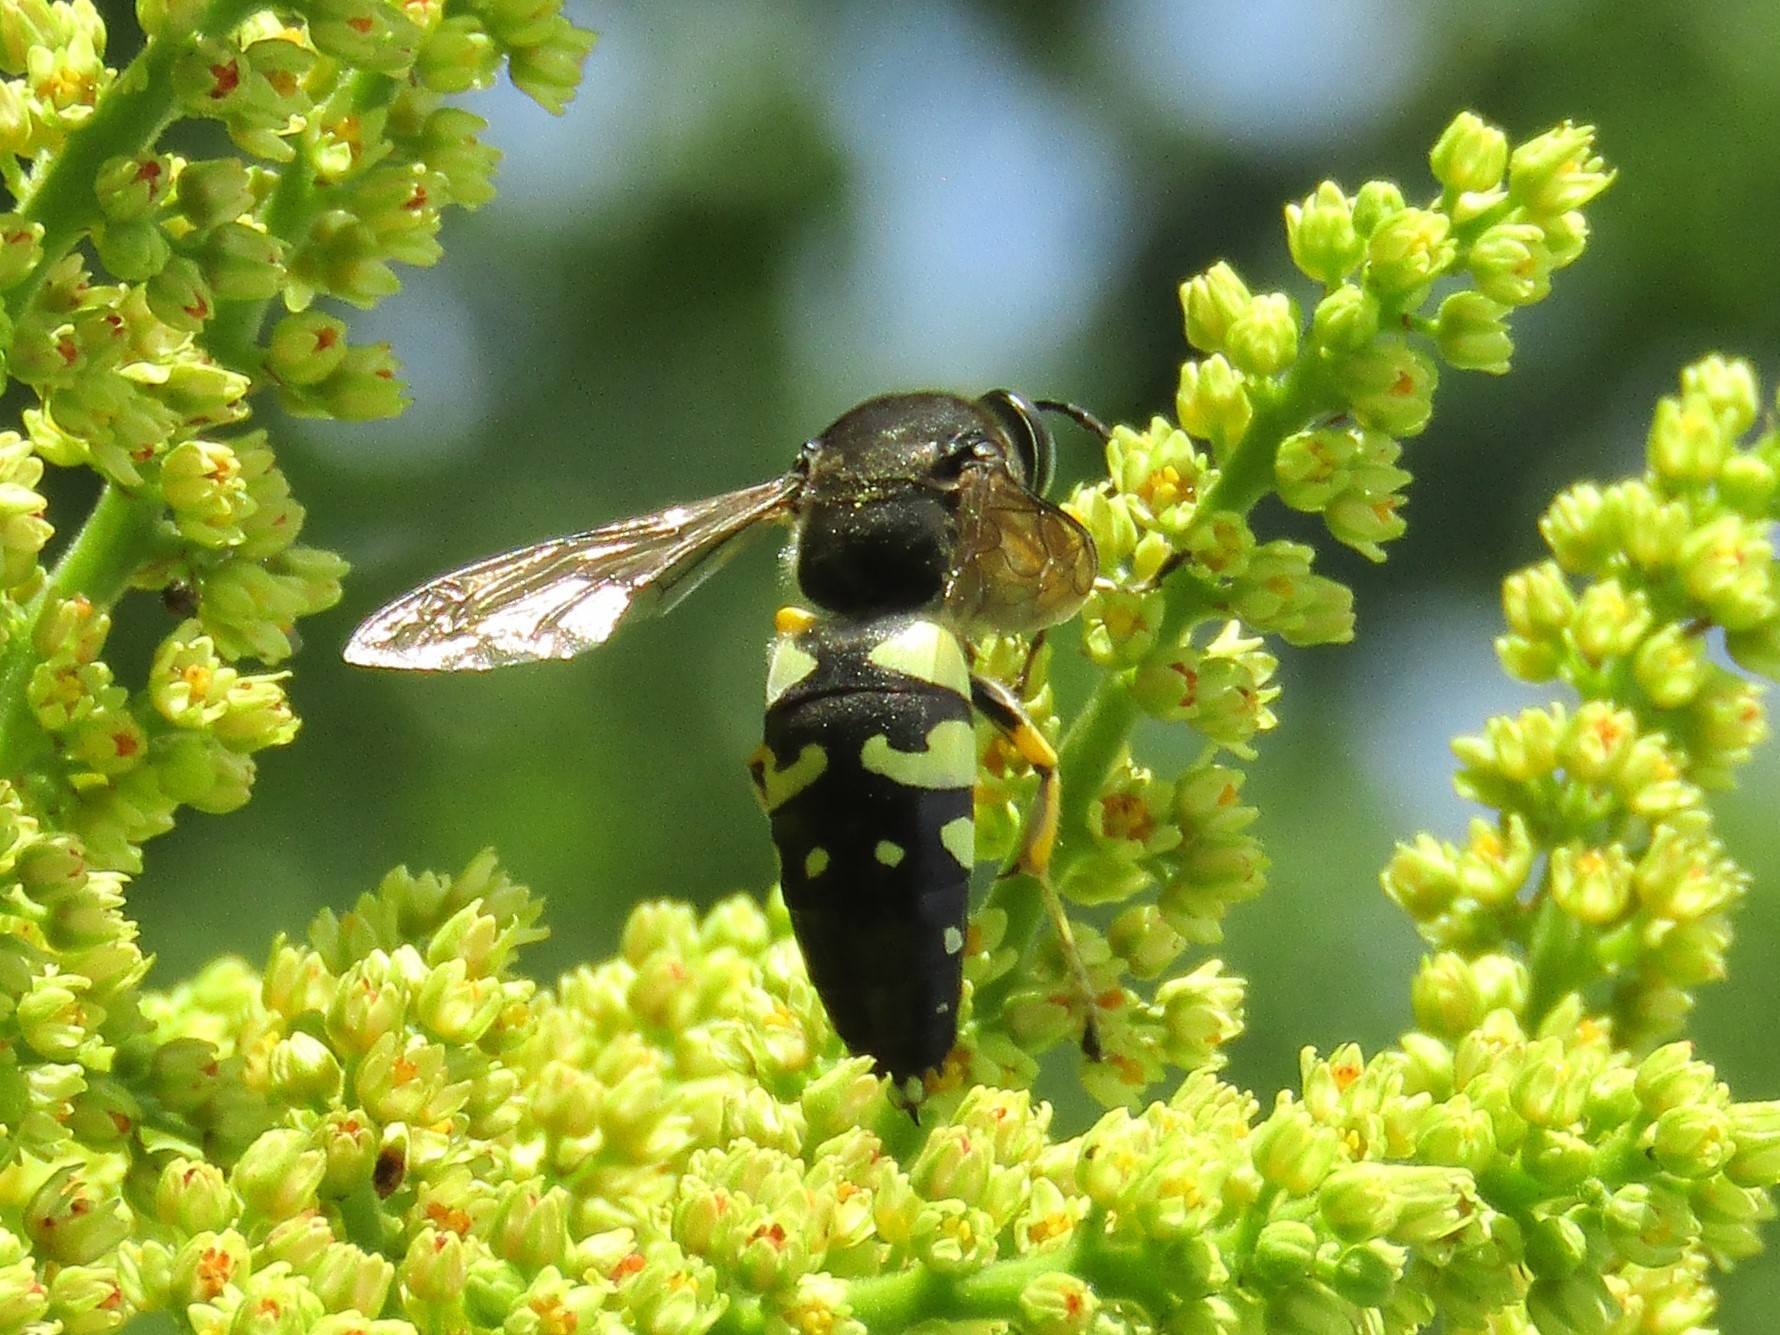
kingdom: Animalia
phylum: Arthropoda
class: Insecta
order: Hymenoptera
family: Crabronidae
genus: Stictia
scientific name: Stictia carolina
